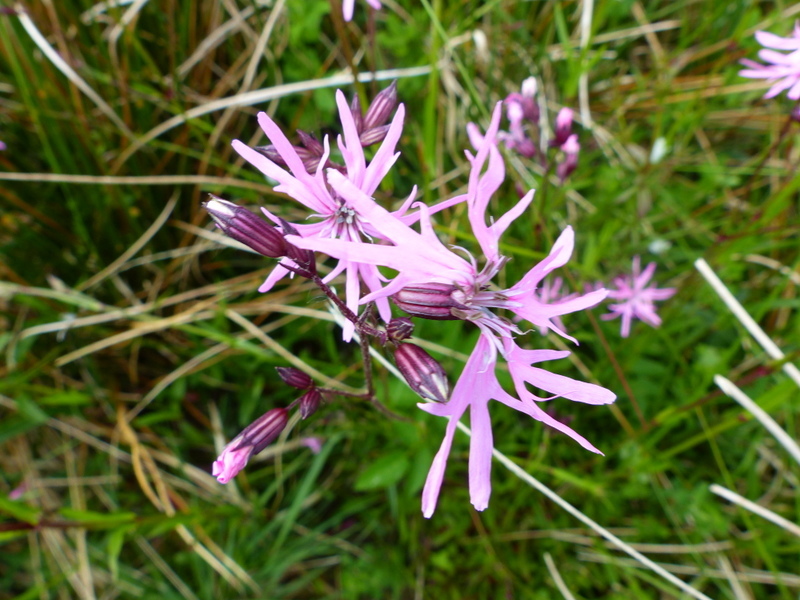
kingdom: Plantae
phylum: Tracheophyta
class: Magnoliopsida
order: Caryophyllales
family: Caryophyllaceae
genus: Silene
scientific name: Silene flos-cuculi
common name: Ragged-robin
